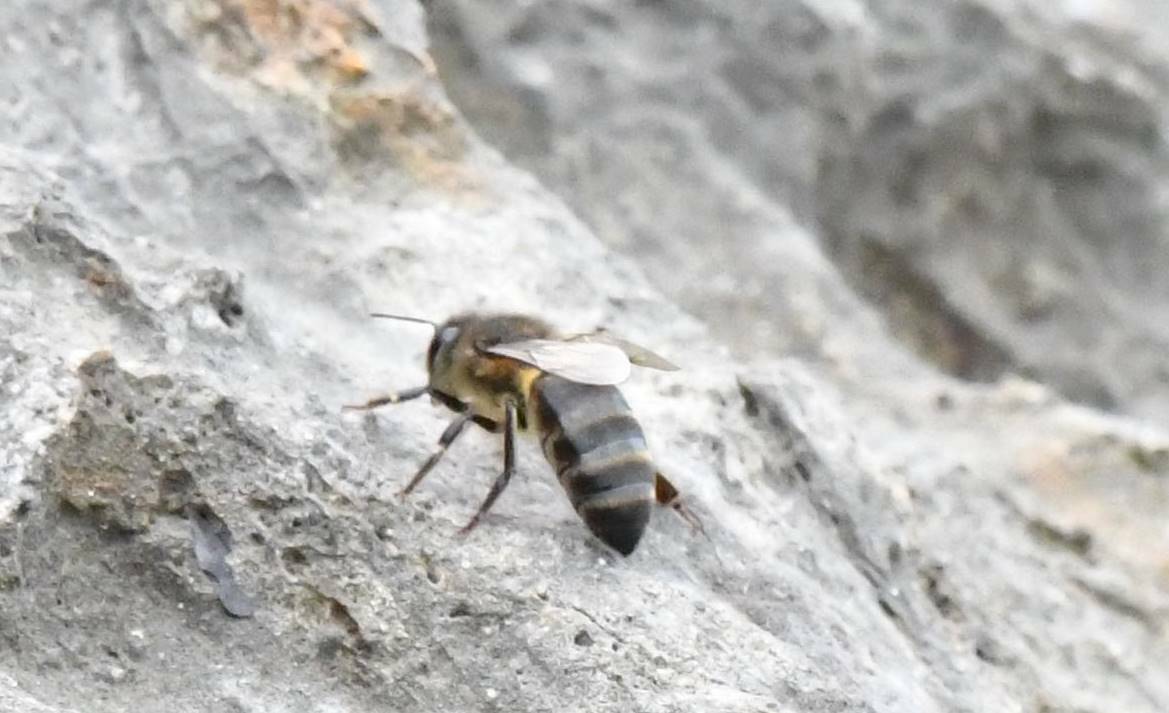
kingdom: Animalia
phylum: Arthropoda
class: Insecta
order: Hymenoptera
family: Apidae
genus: Apis
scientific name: Apis mellifera
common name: Honey bee
